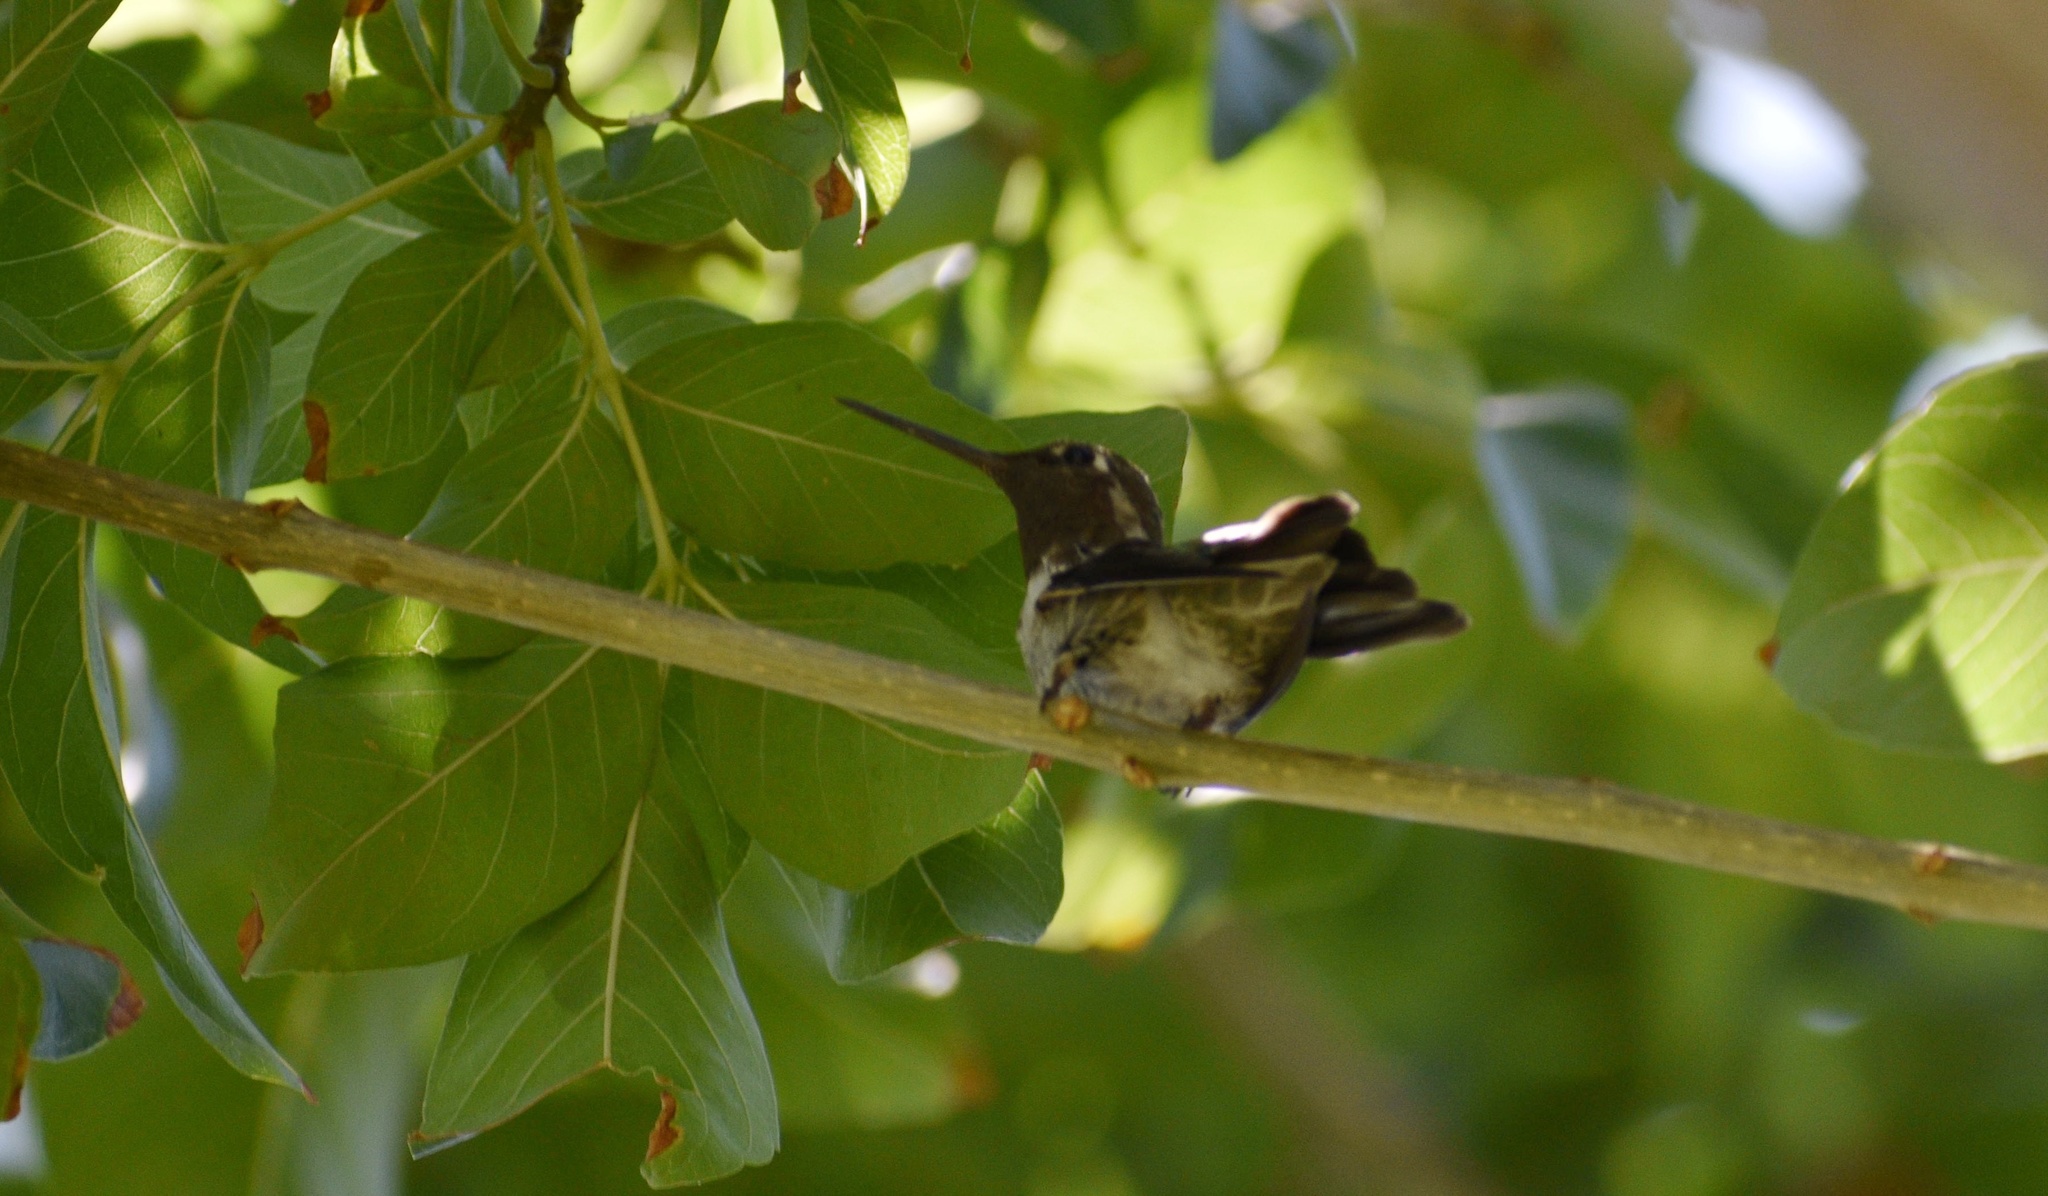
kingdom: Animalia
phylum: Chordata
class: Aves
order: Apodiformes
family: Trochilidae
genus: Calypte
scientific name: Calypte anna
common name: Anna's hummingbird
